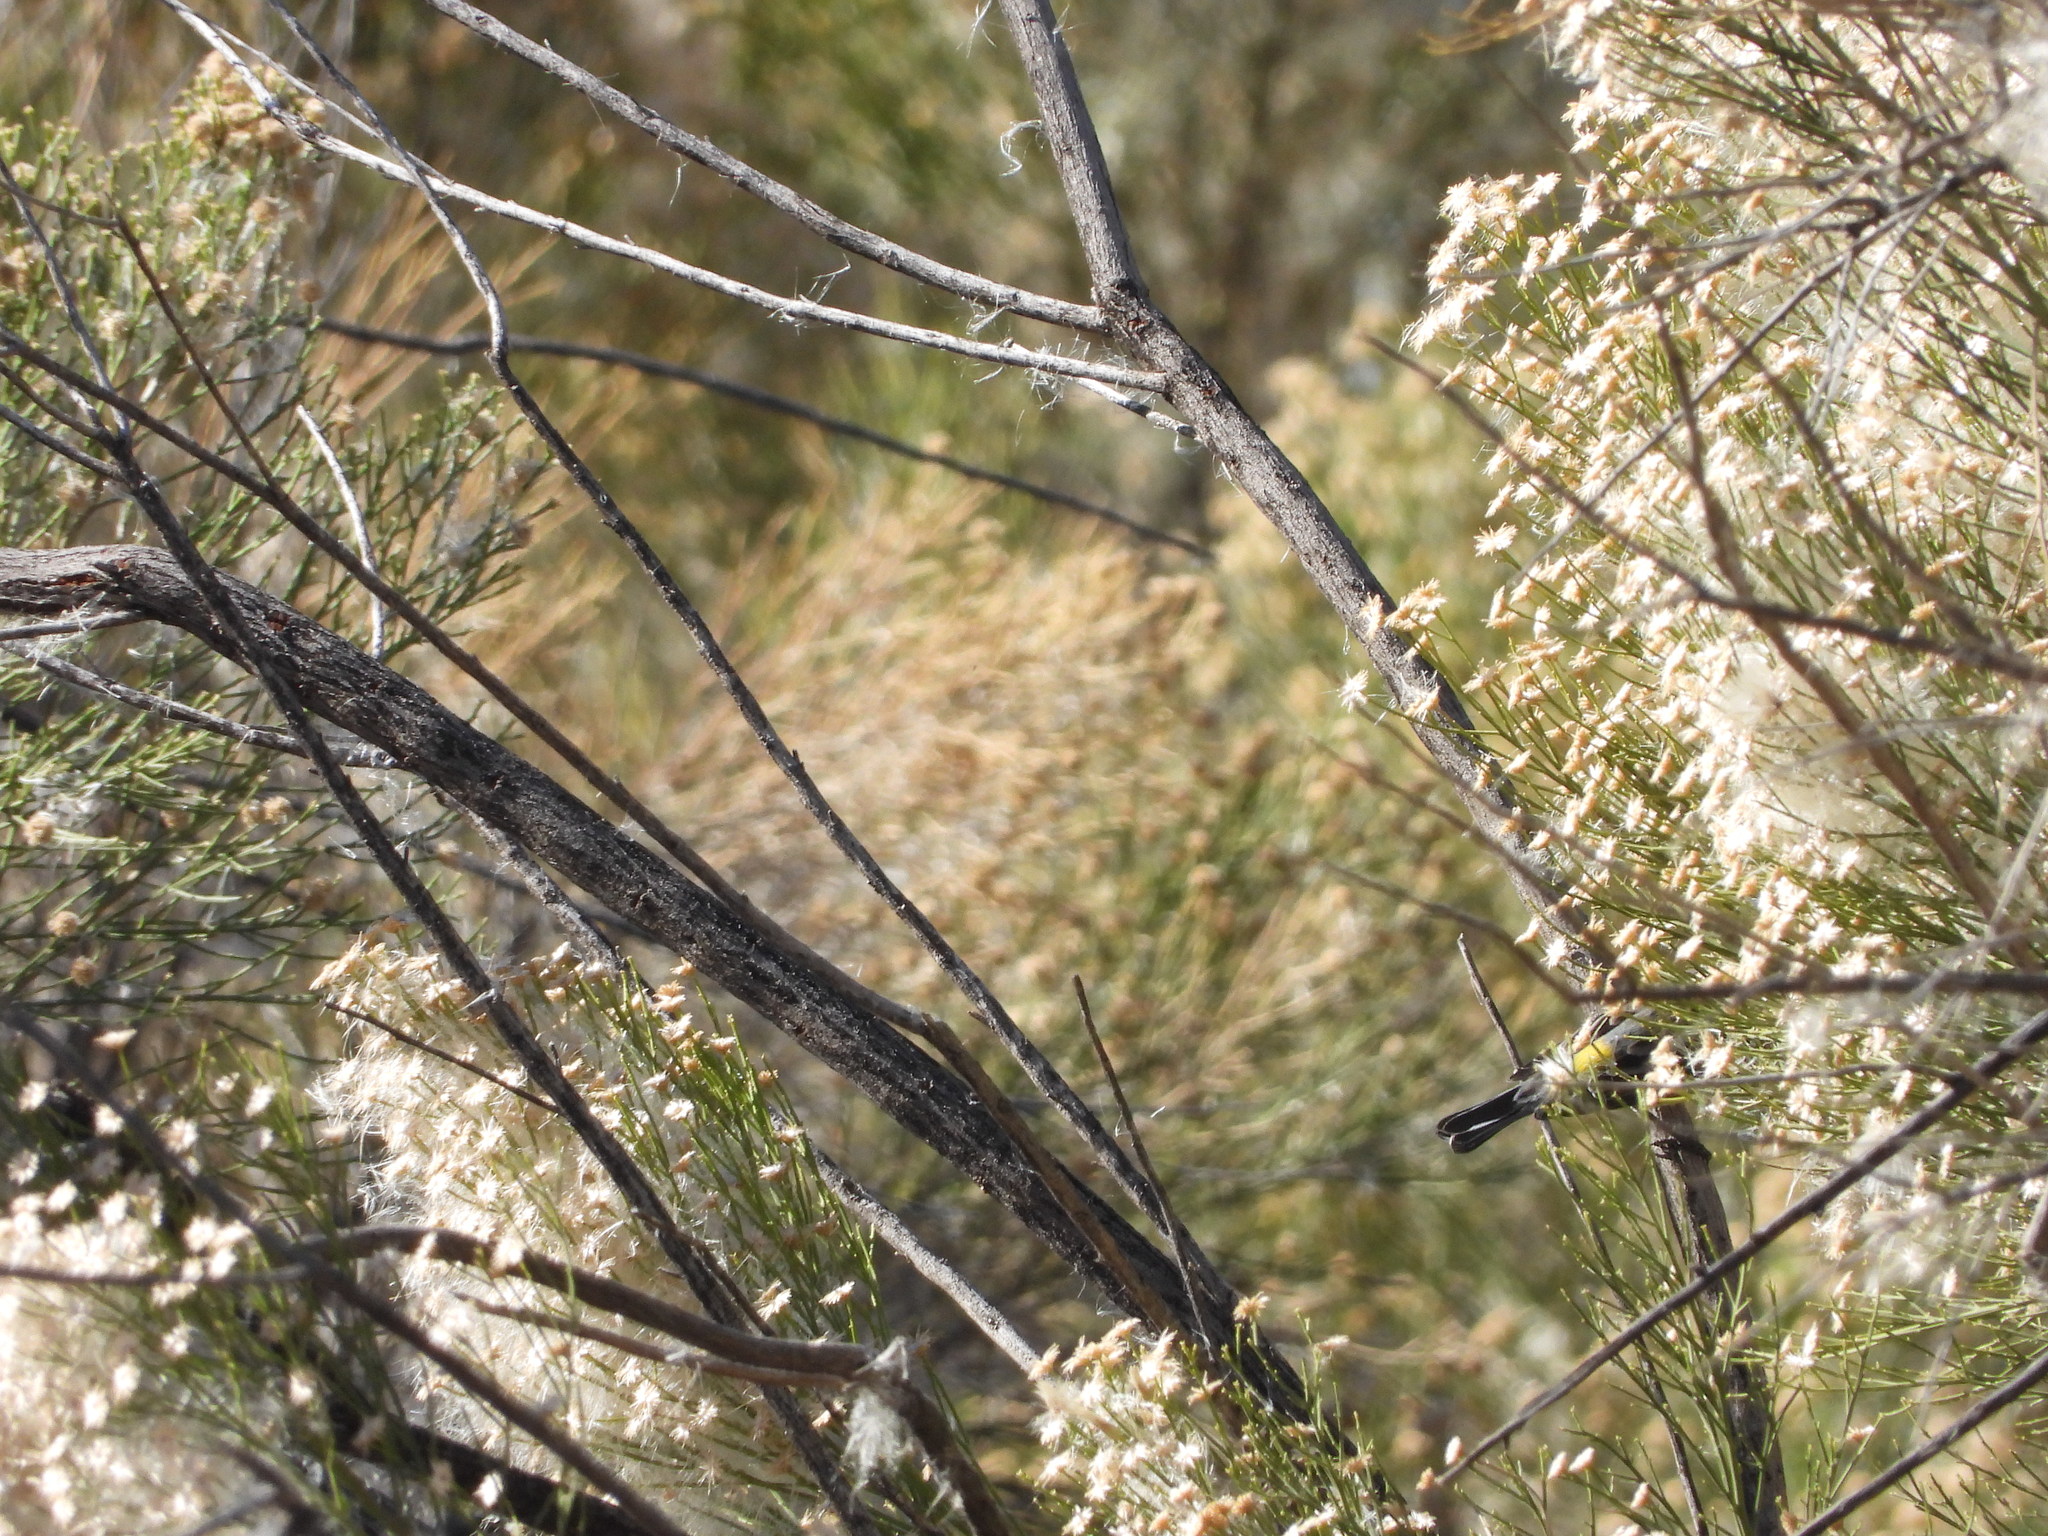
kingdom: Animalia
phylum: Chordata
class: Aves
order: Passeriformes
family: Parulidae
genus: Setophaga
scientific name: Setophaga coronata
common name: Myrtle warbler
